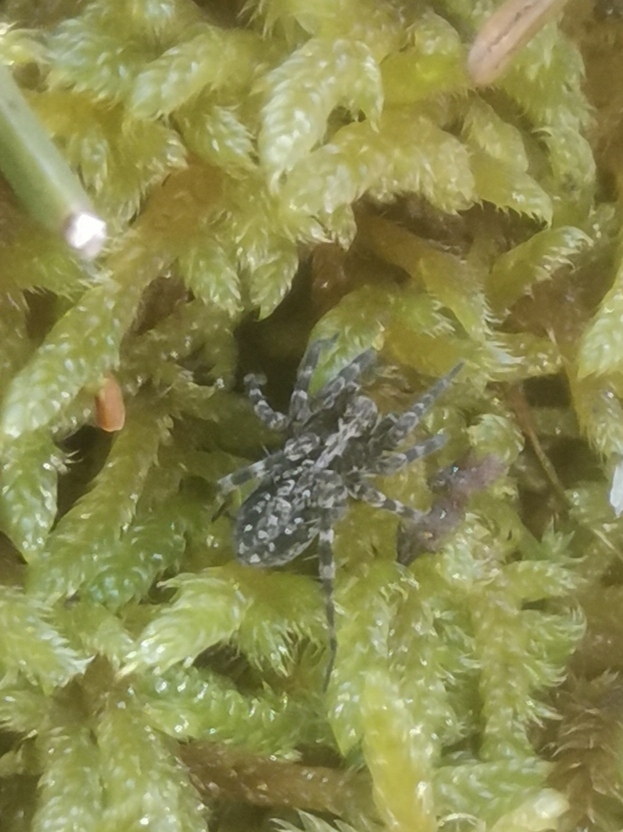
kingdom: Animalia
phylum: Arthropoda
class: Arachnida
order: Araneae
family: Lycosidae
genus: Acantholycosa
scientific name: Acantholycosa lignaria
